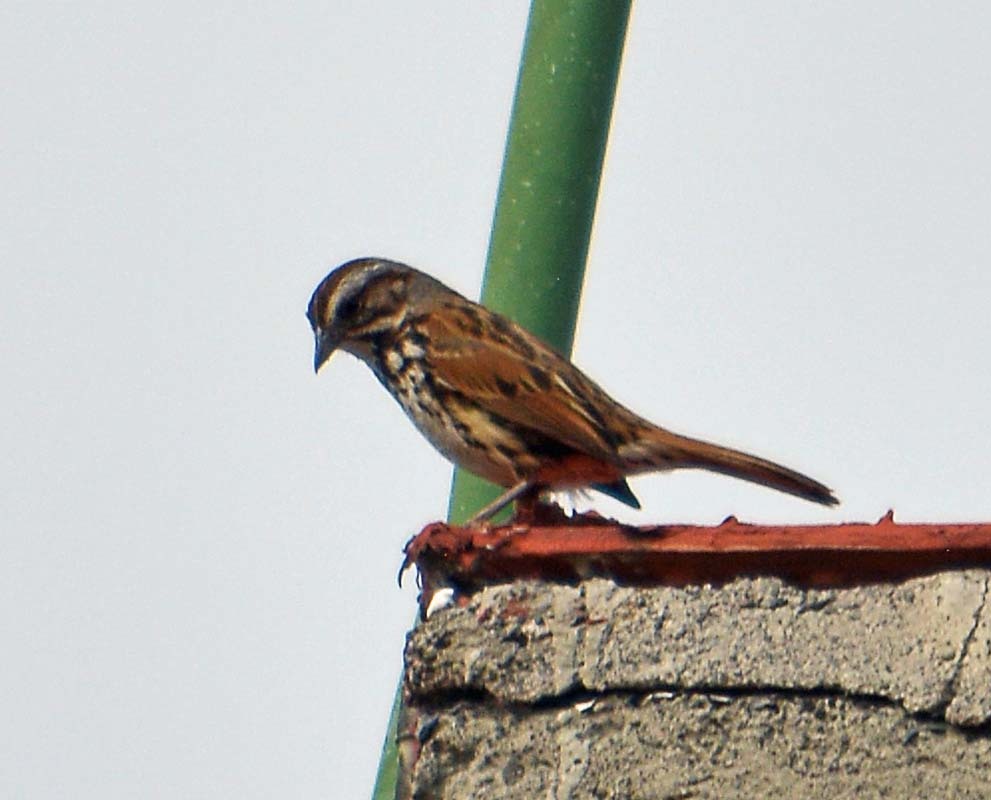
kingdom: Animalia
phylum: Chordata
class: Aves
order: Passeriformes
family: Passerellidae
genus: Melospiza
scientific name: Melospiza melodia
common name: Song sparrow
